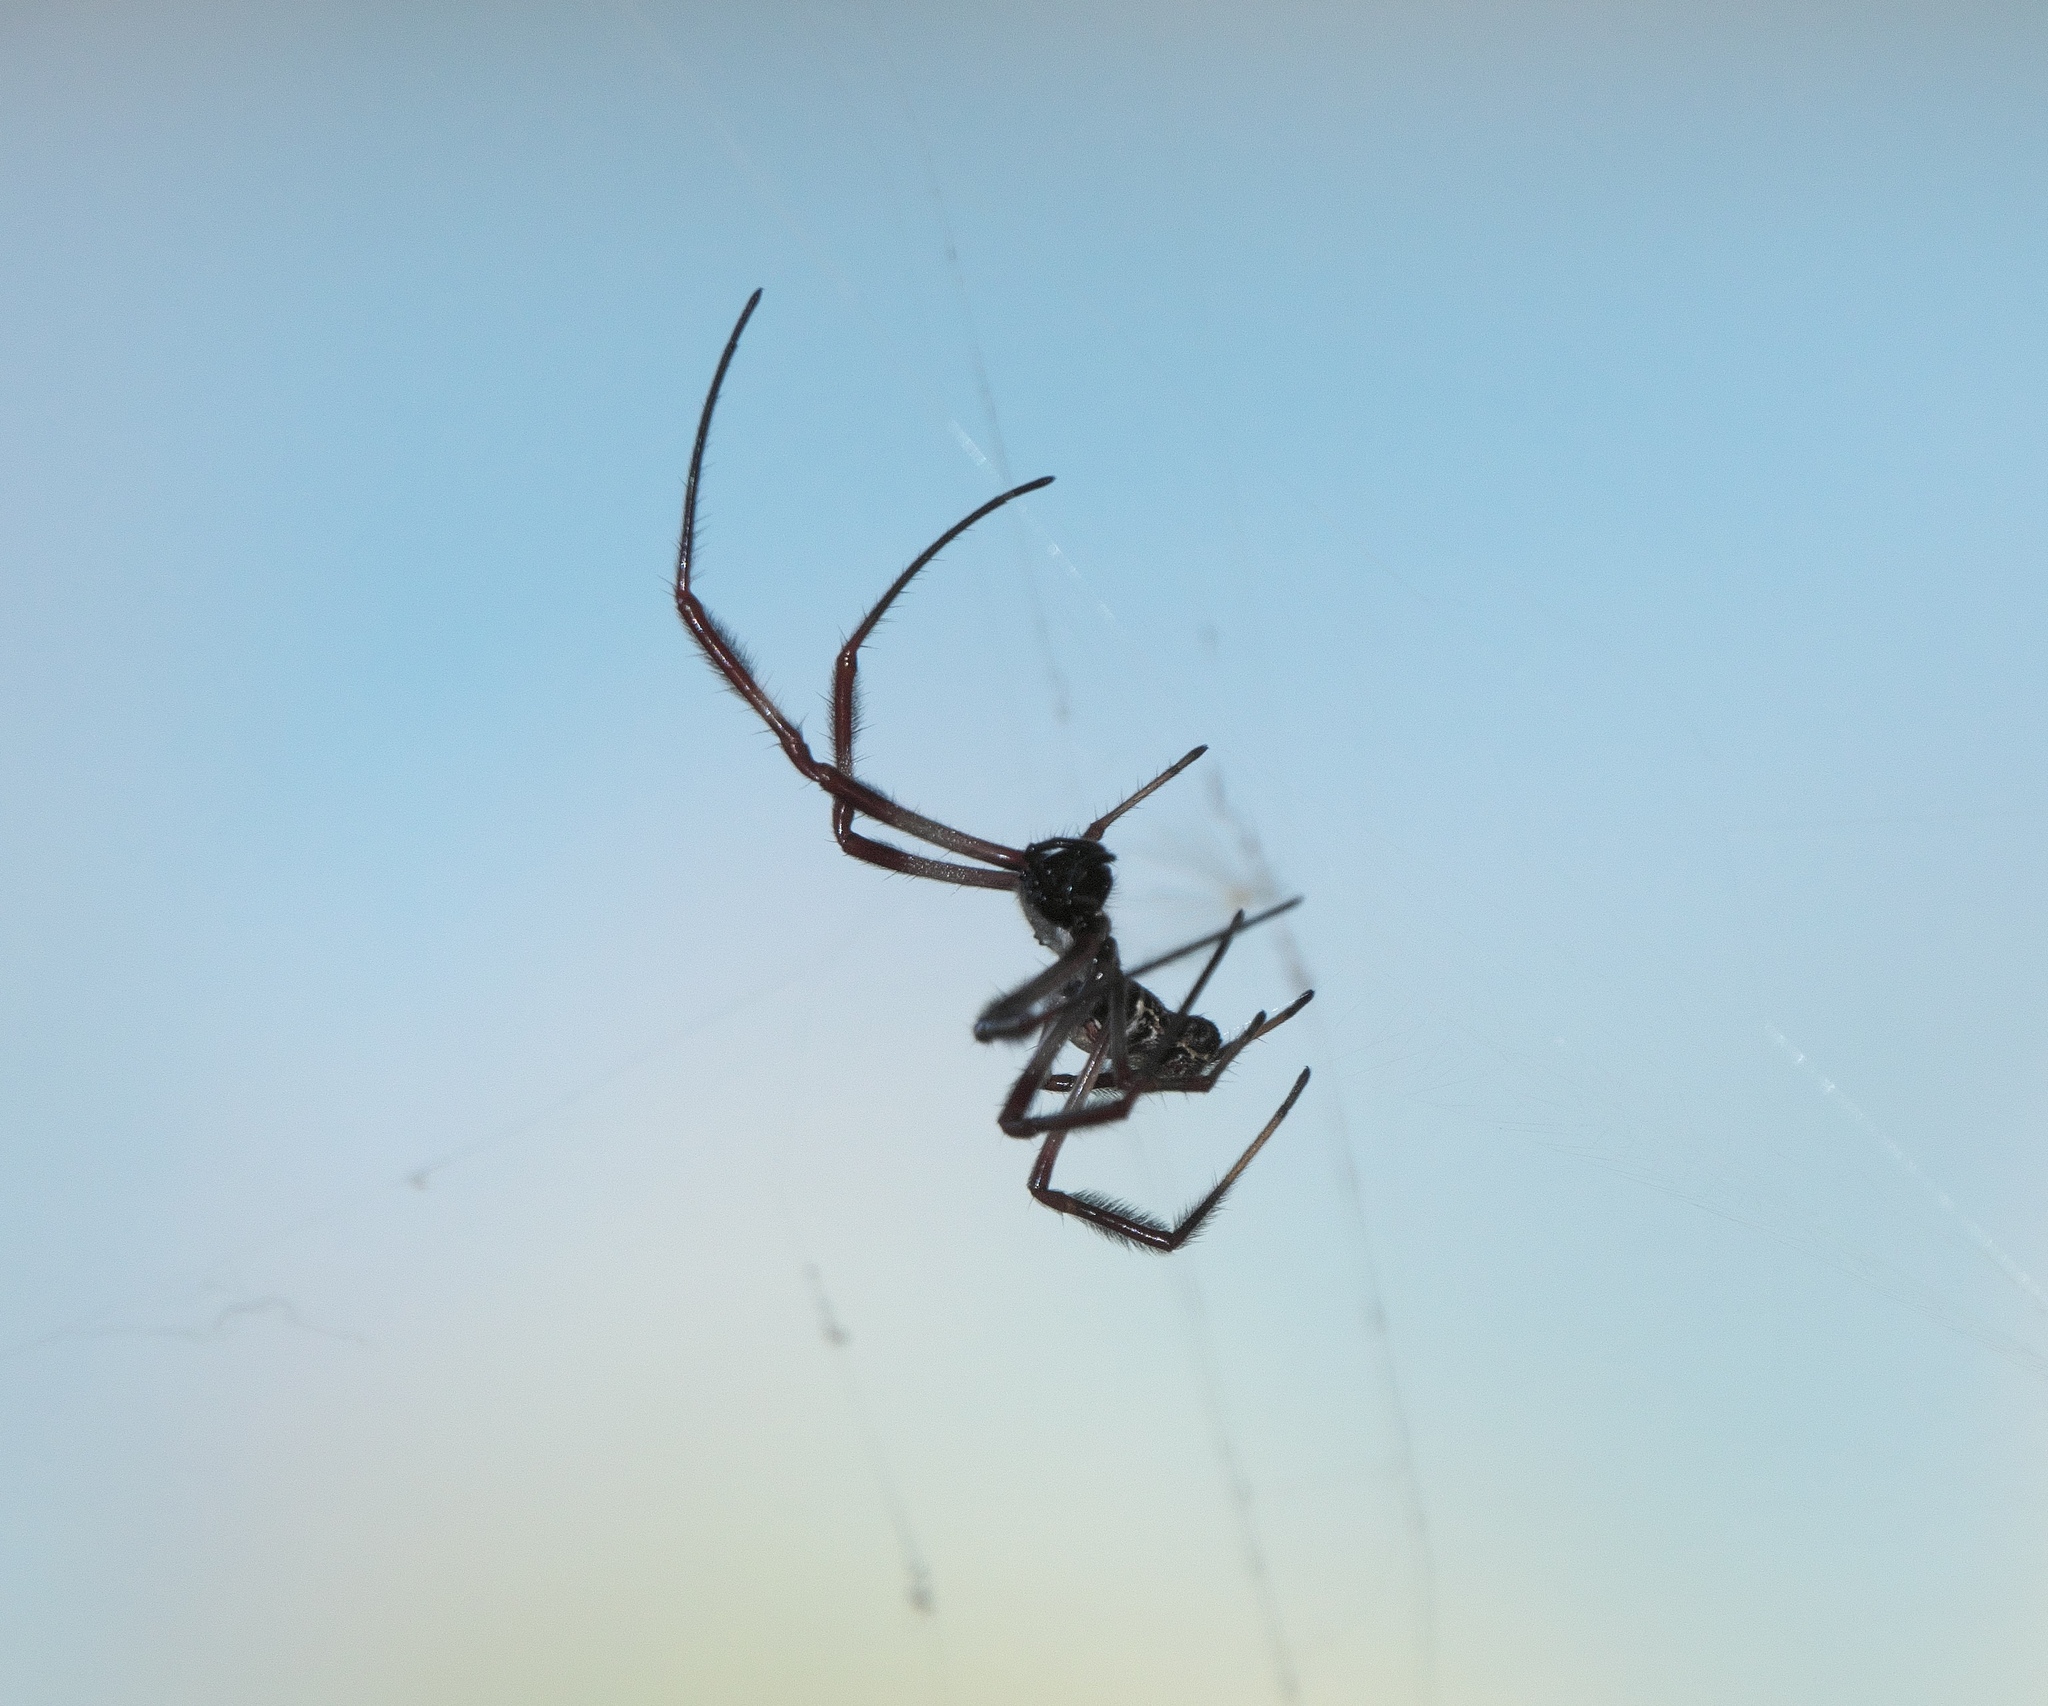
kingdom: Animalia
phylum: Arthropoda
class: Arachnida
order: Araneae
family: Araneidae
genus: Trichonephila
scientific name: Trichonephila edulis
